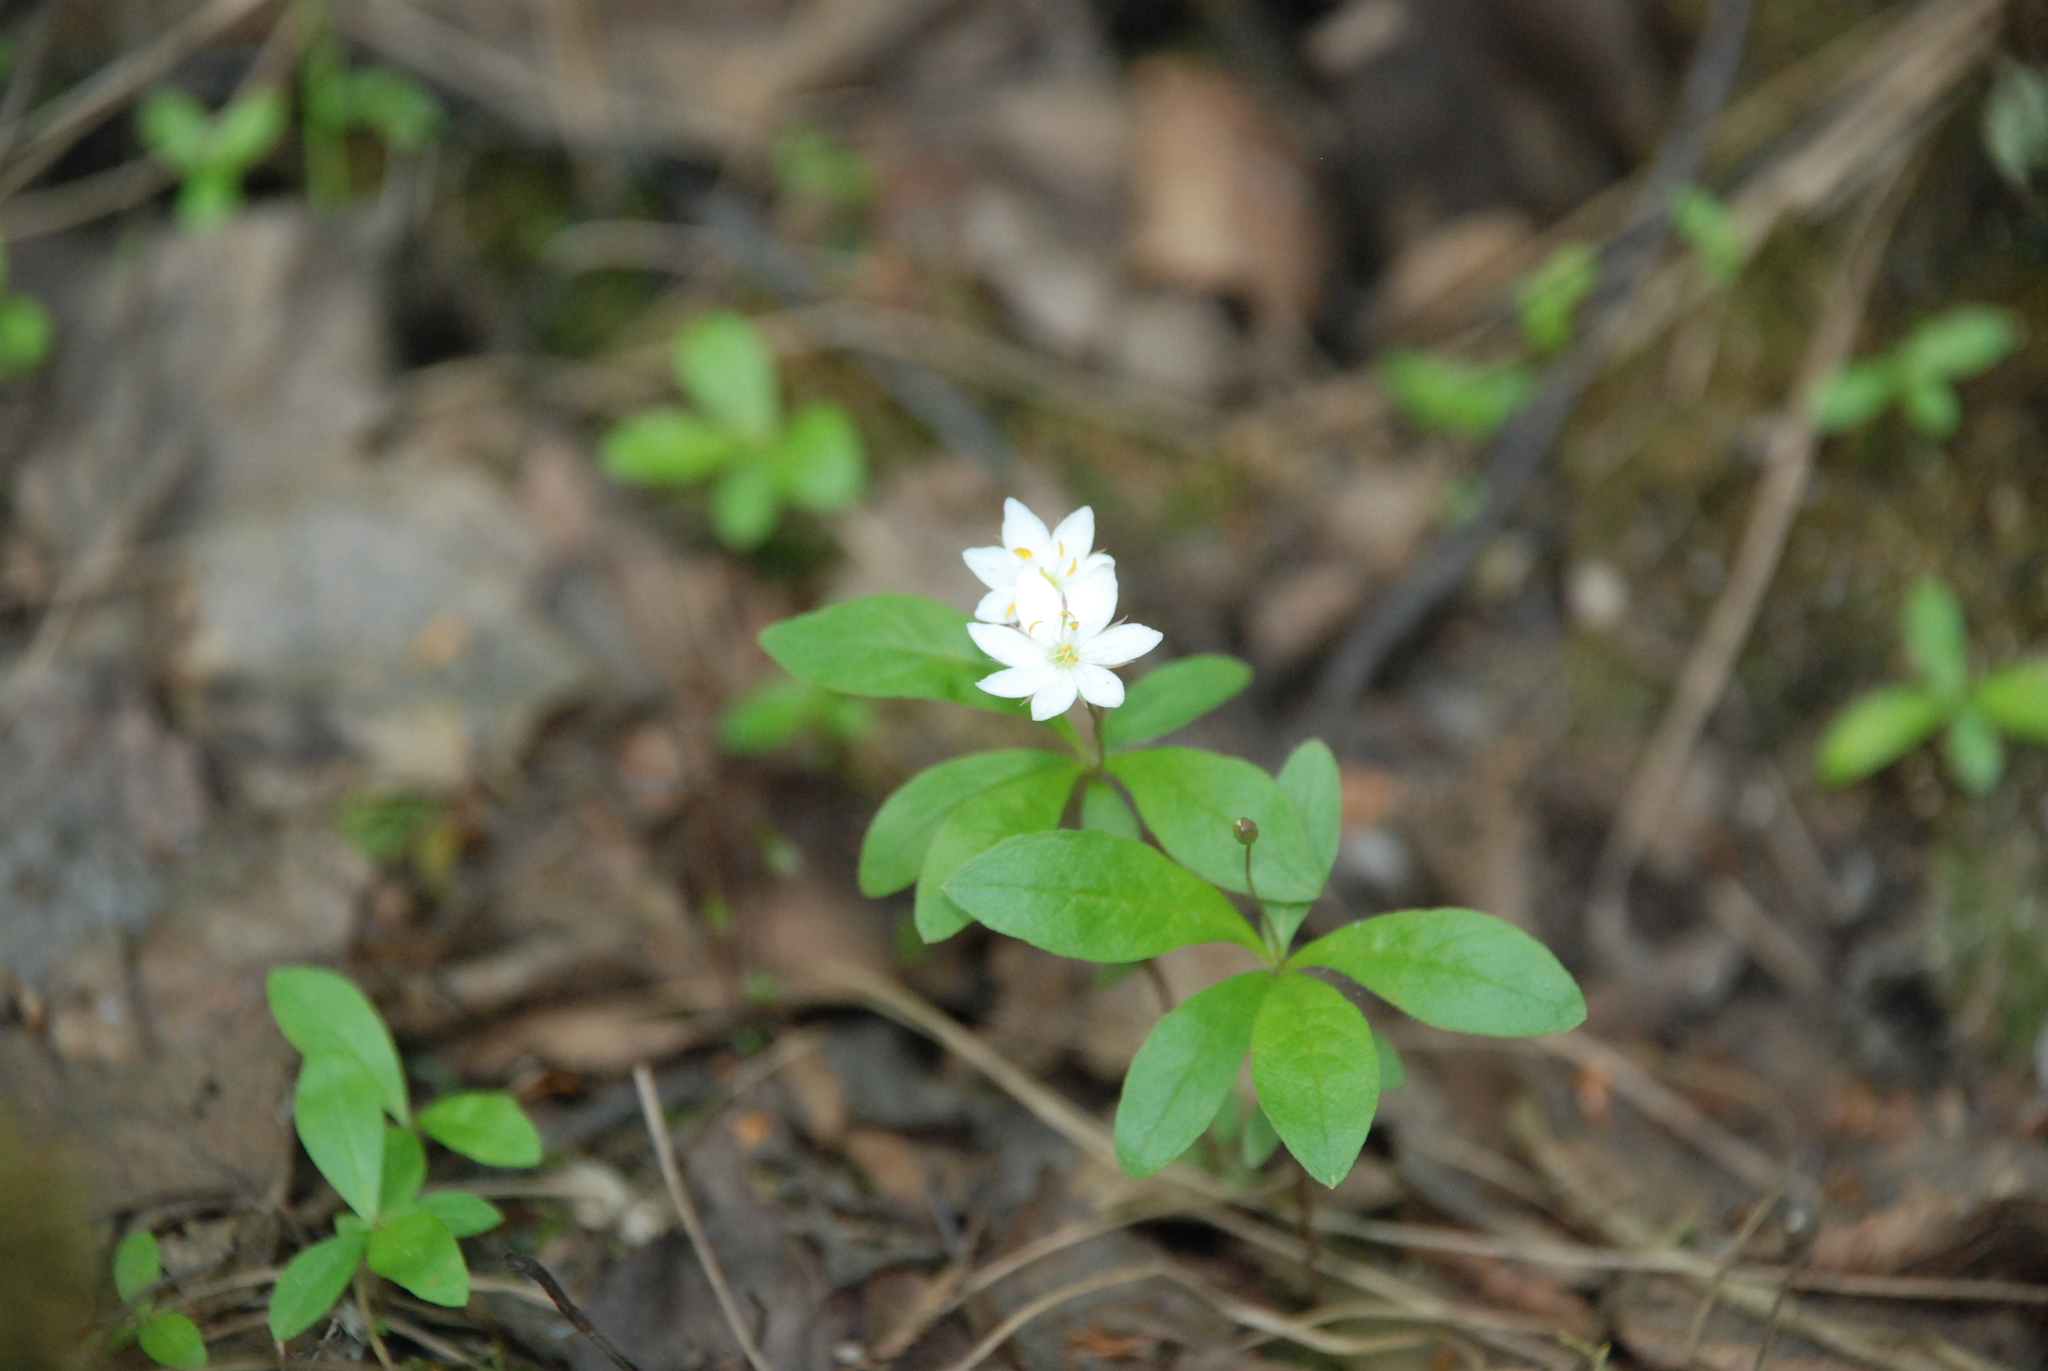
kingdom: Plantae
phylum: Tracheophyta
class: Magnoliopsida
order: Ericales
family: Primulaceae
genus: Lysimachia
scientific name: Lysimachia europaea
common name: Arctic starflower
